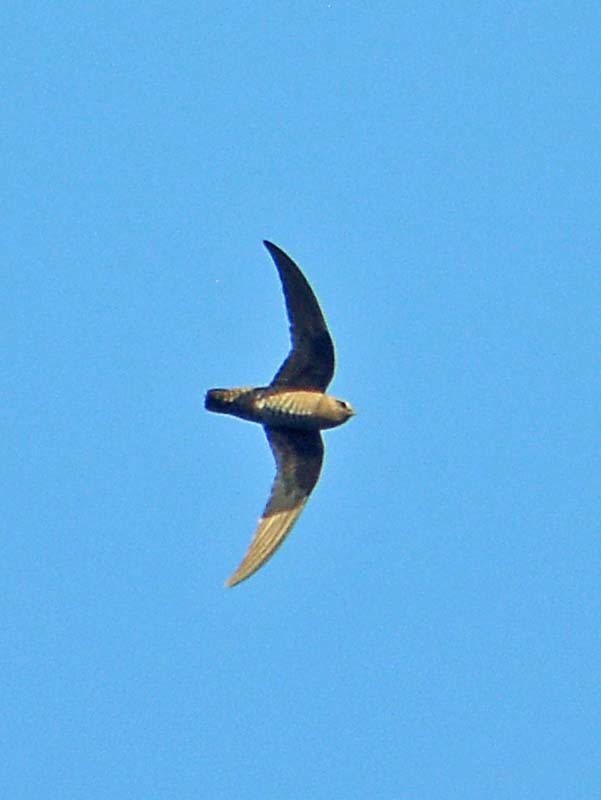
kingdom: Animalia
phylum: Chordata
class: Aves
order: Apodiformes
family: Apodidae
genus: Cypseloides
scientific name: Cypseloides niger
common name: Black swift
